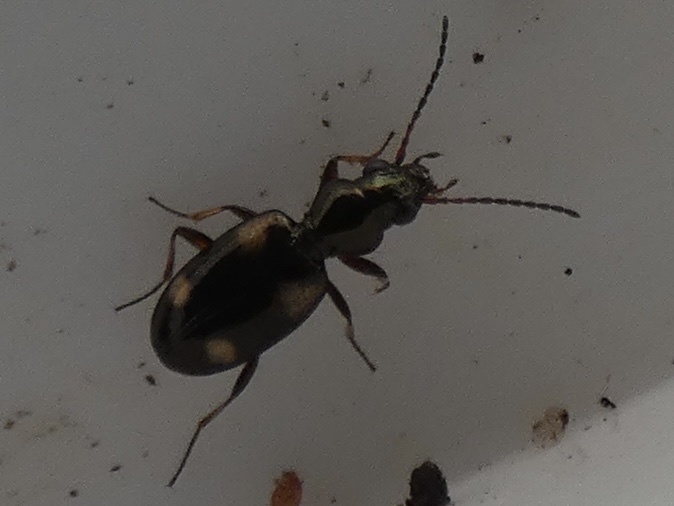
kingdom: Animalia
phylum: Arthropoda
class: Insecta
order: Coleoptera
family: Carabidae
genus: Bembidion
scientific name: Bembidion quadrimaculatum
